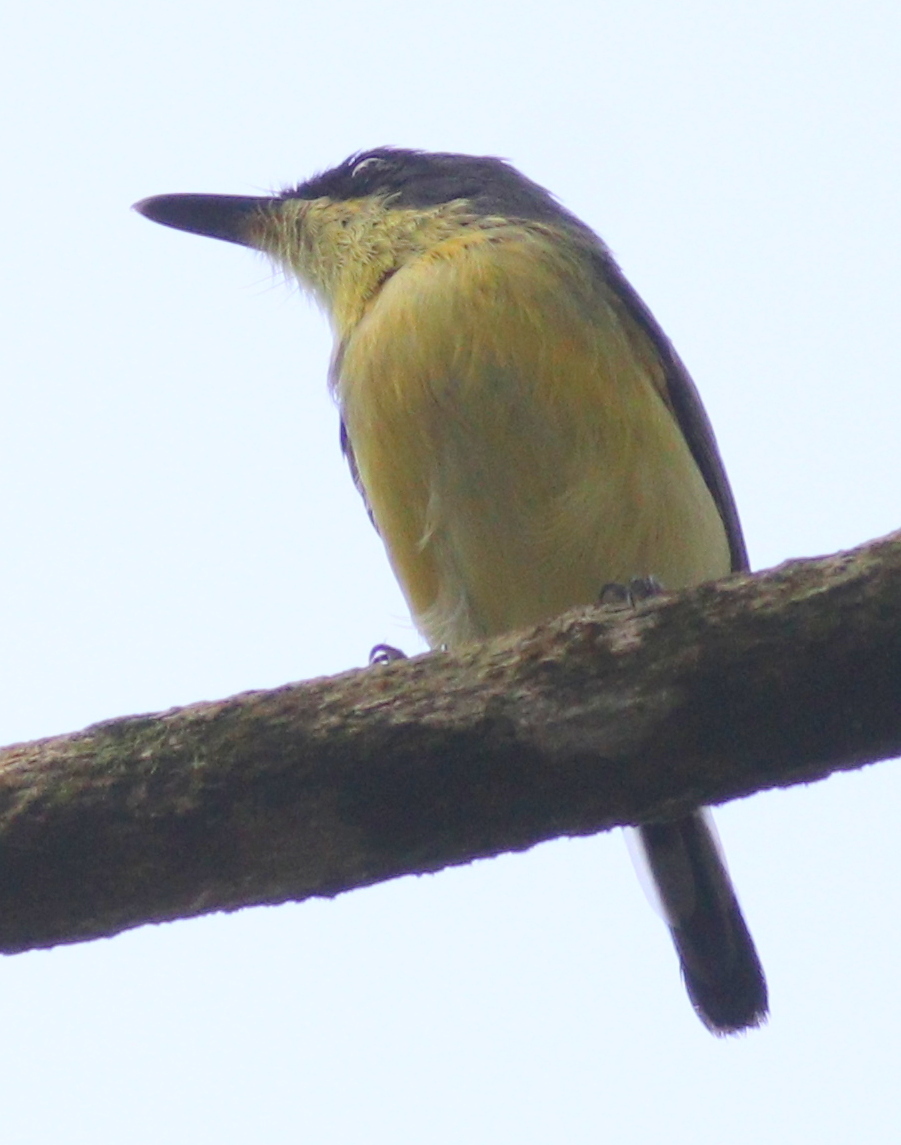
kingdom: Animalia
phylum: Chordata
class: Aves
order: Passeriformes
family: Tyrannidae
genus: Todirostrum
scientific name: Todirostrum cinereum
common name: Common tody-flycatcher
